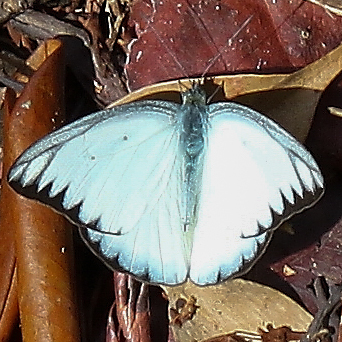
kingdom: Animalia
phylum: Arthropoda
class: Insecta
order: Lepidoptera
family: Pieridae
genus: Appias
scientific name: Appias lyncida
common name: Chocolate albatross
